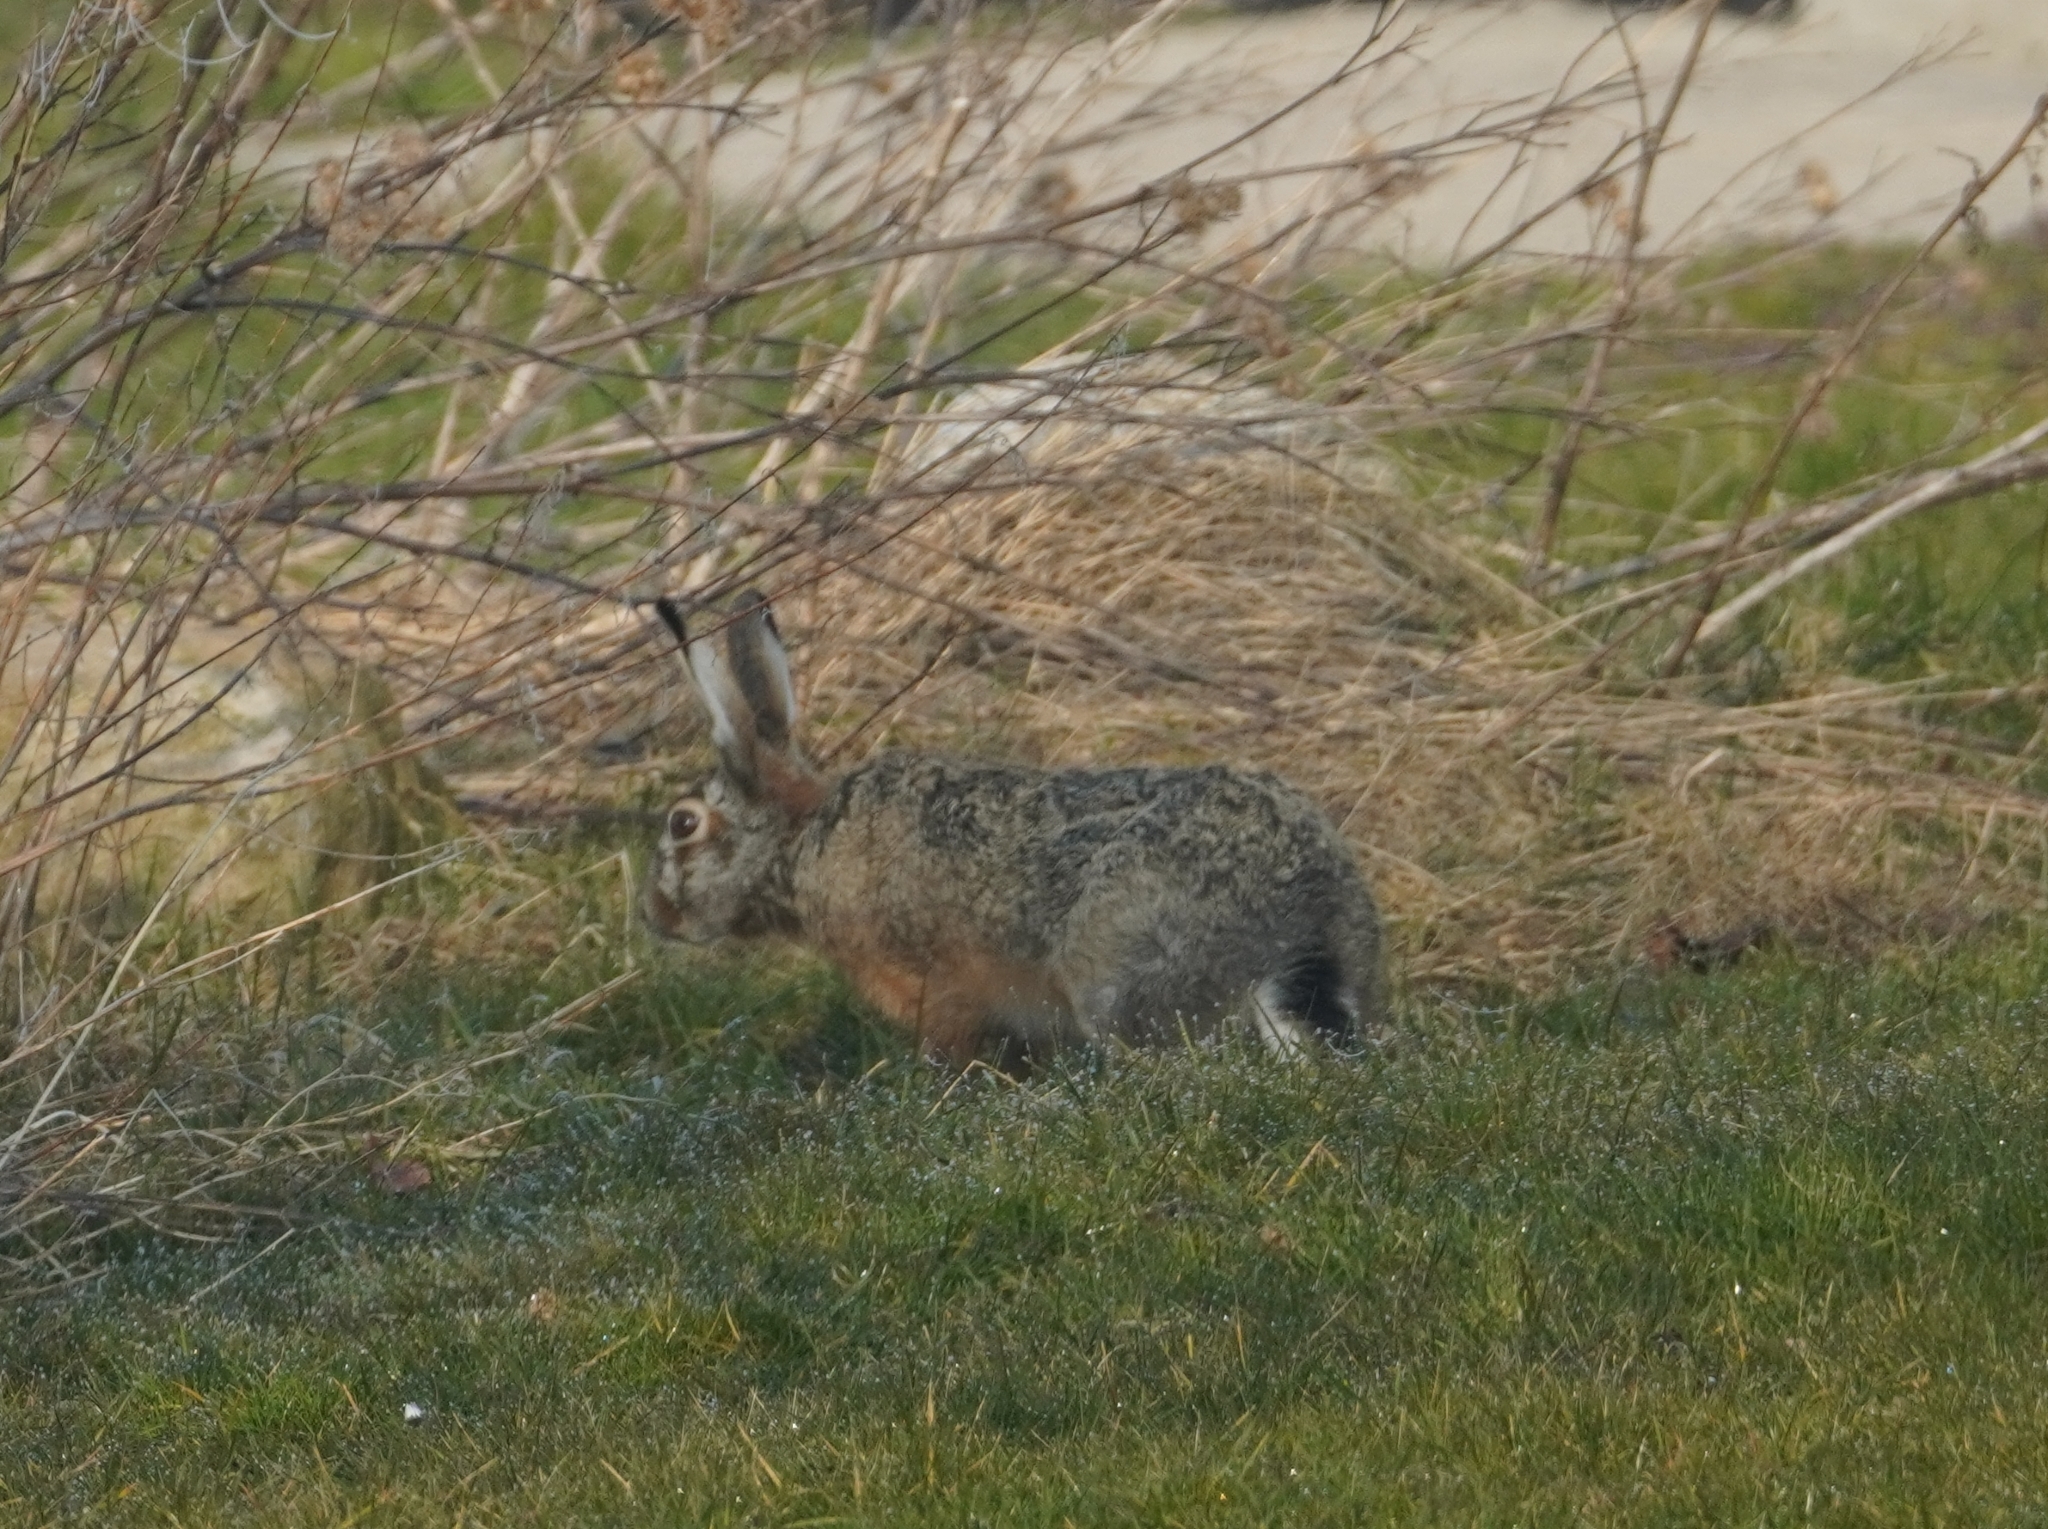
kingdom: Animalia
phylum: Chordata
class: Mammalia
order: Lagomorpha
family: Leporidae
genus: Lepus
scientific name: Lepus europaeus
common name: European hare
